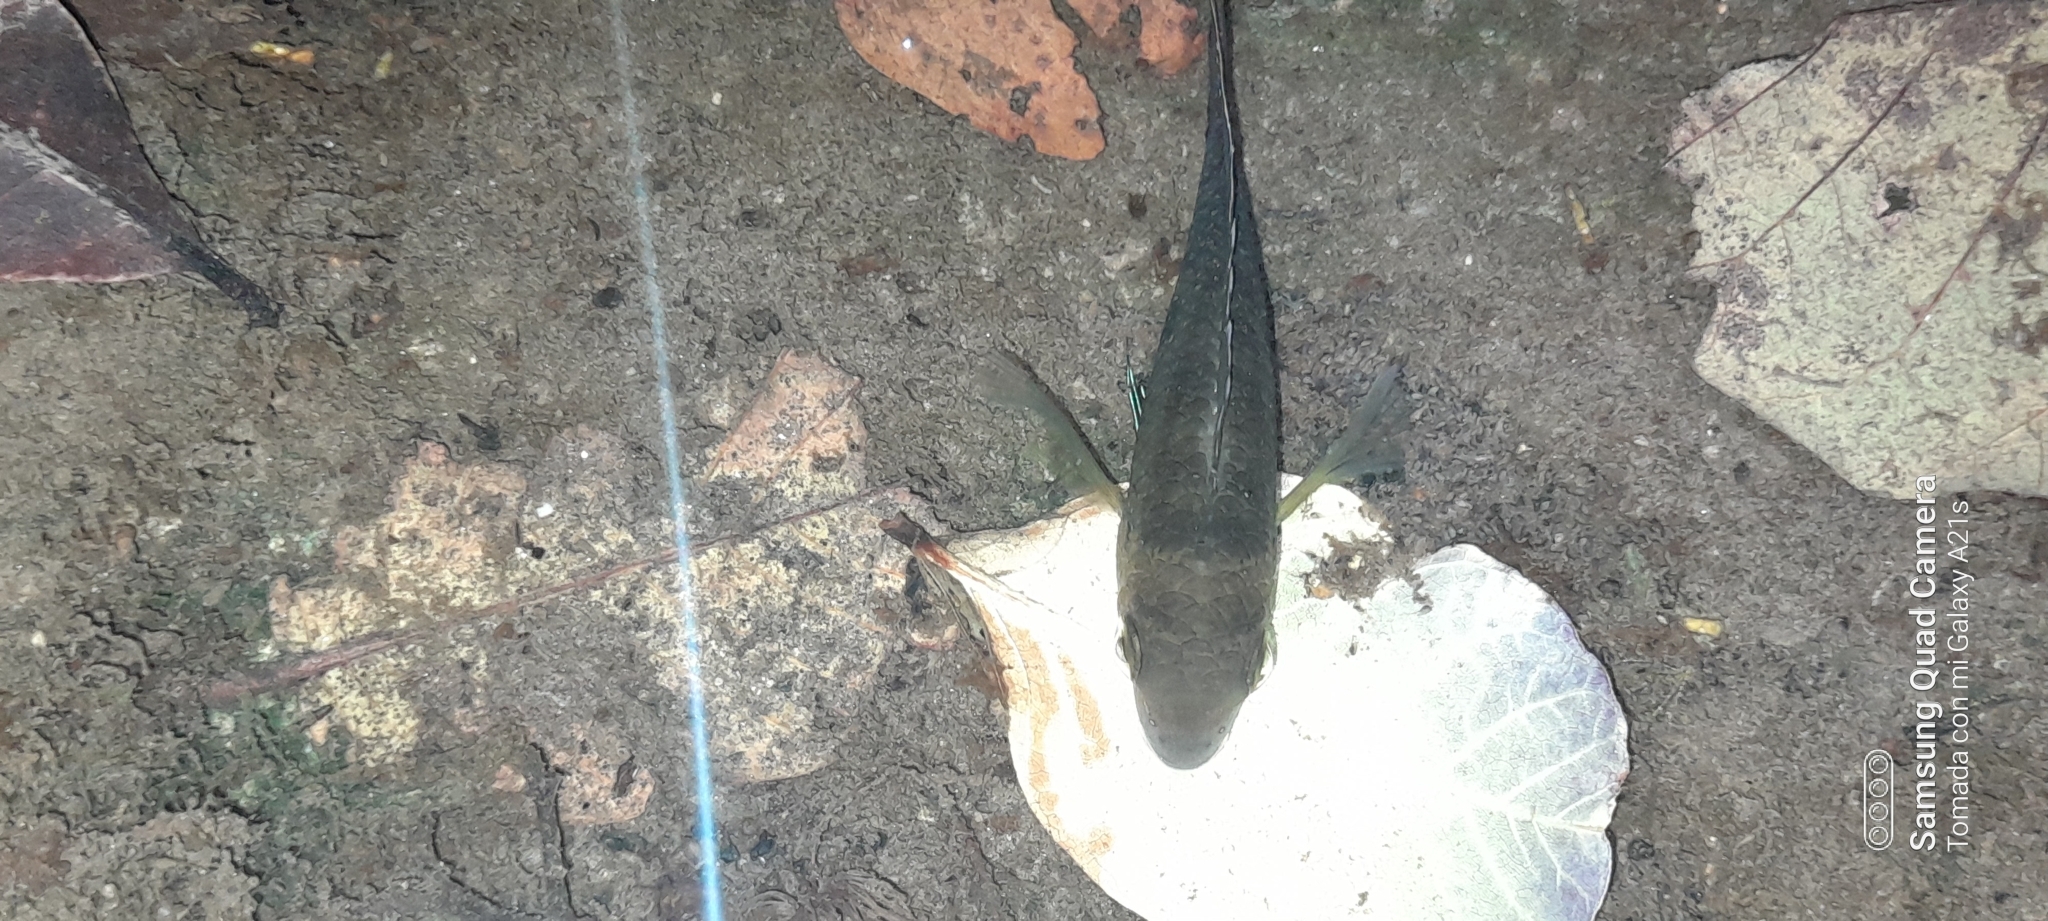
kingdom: Animalia
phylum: Chordata
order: Perciformes
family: Cichlidae
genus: Andinoacara
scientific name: Andinoacara coeruleopunctatus
